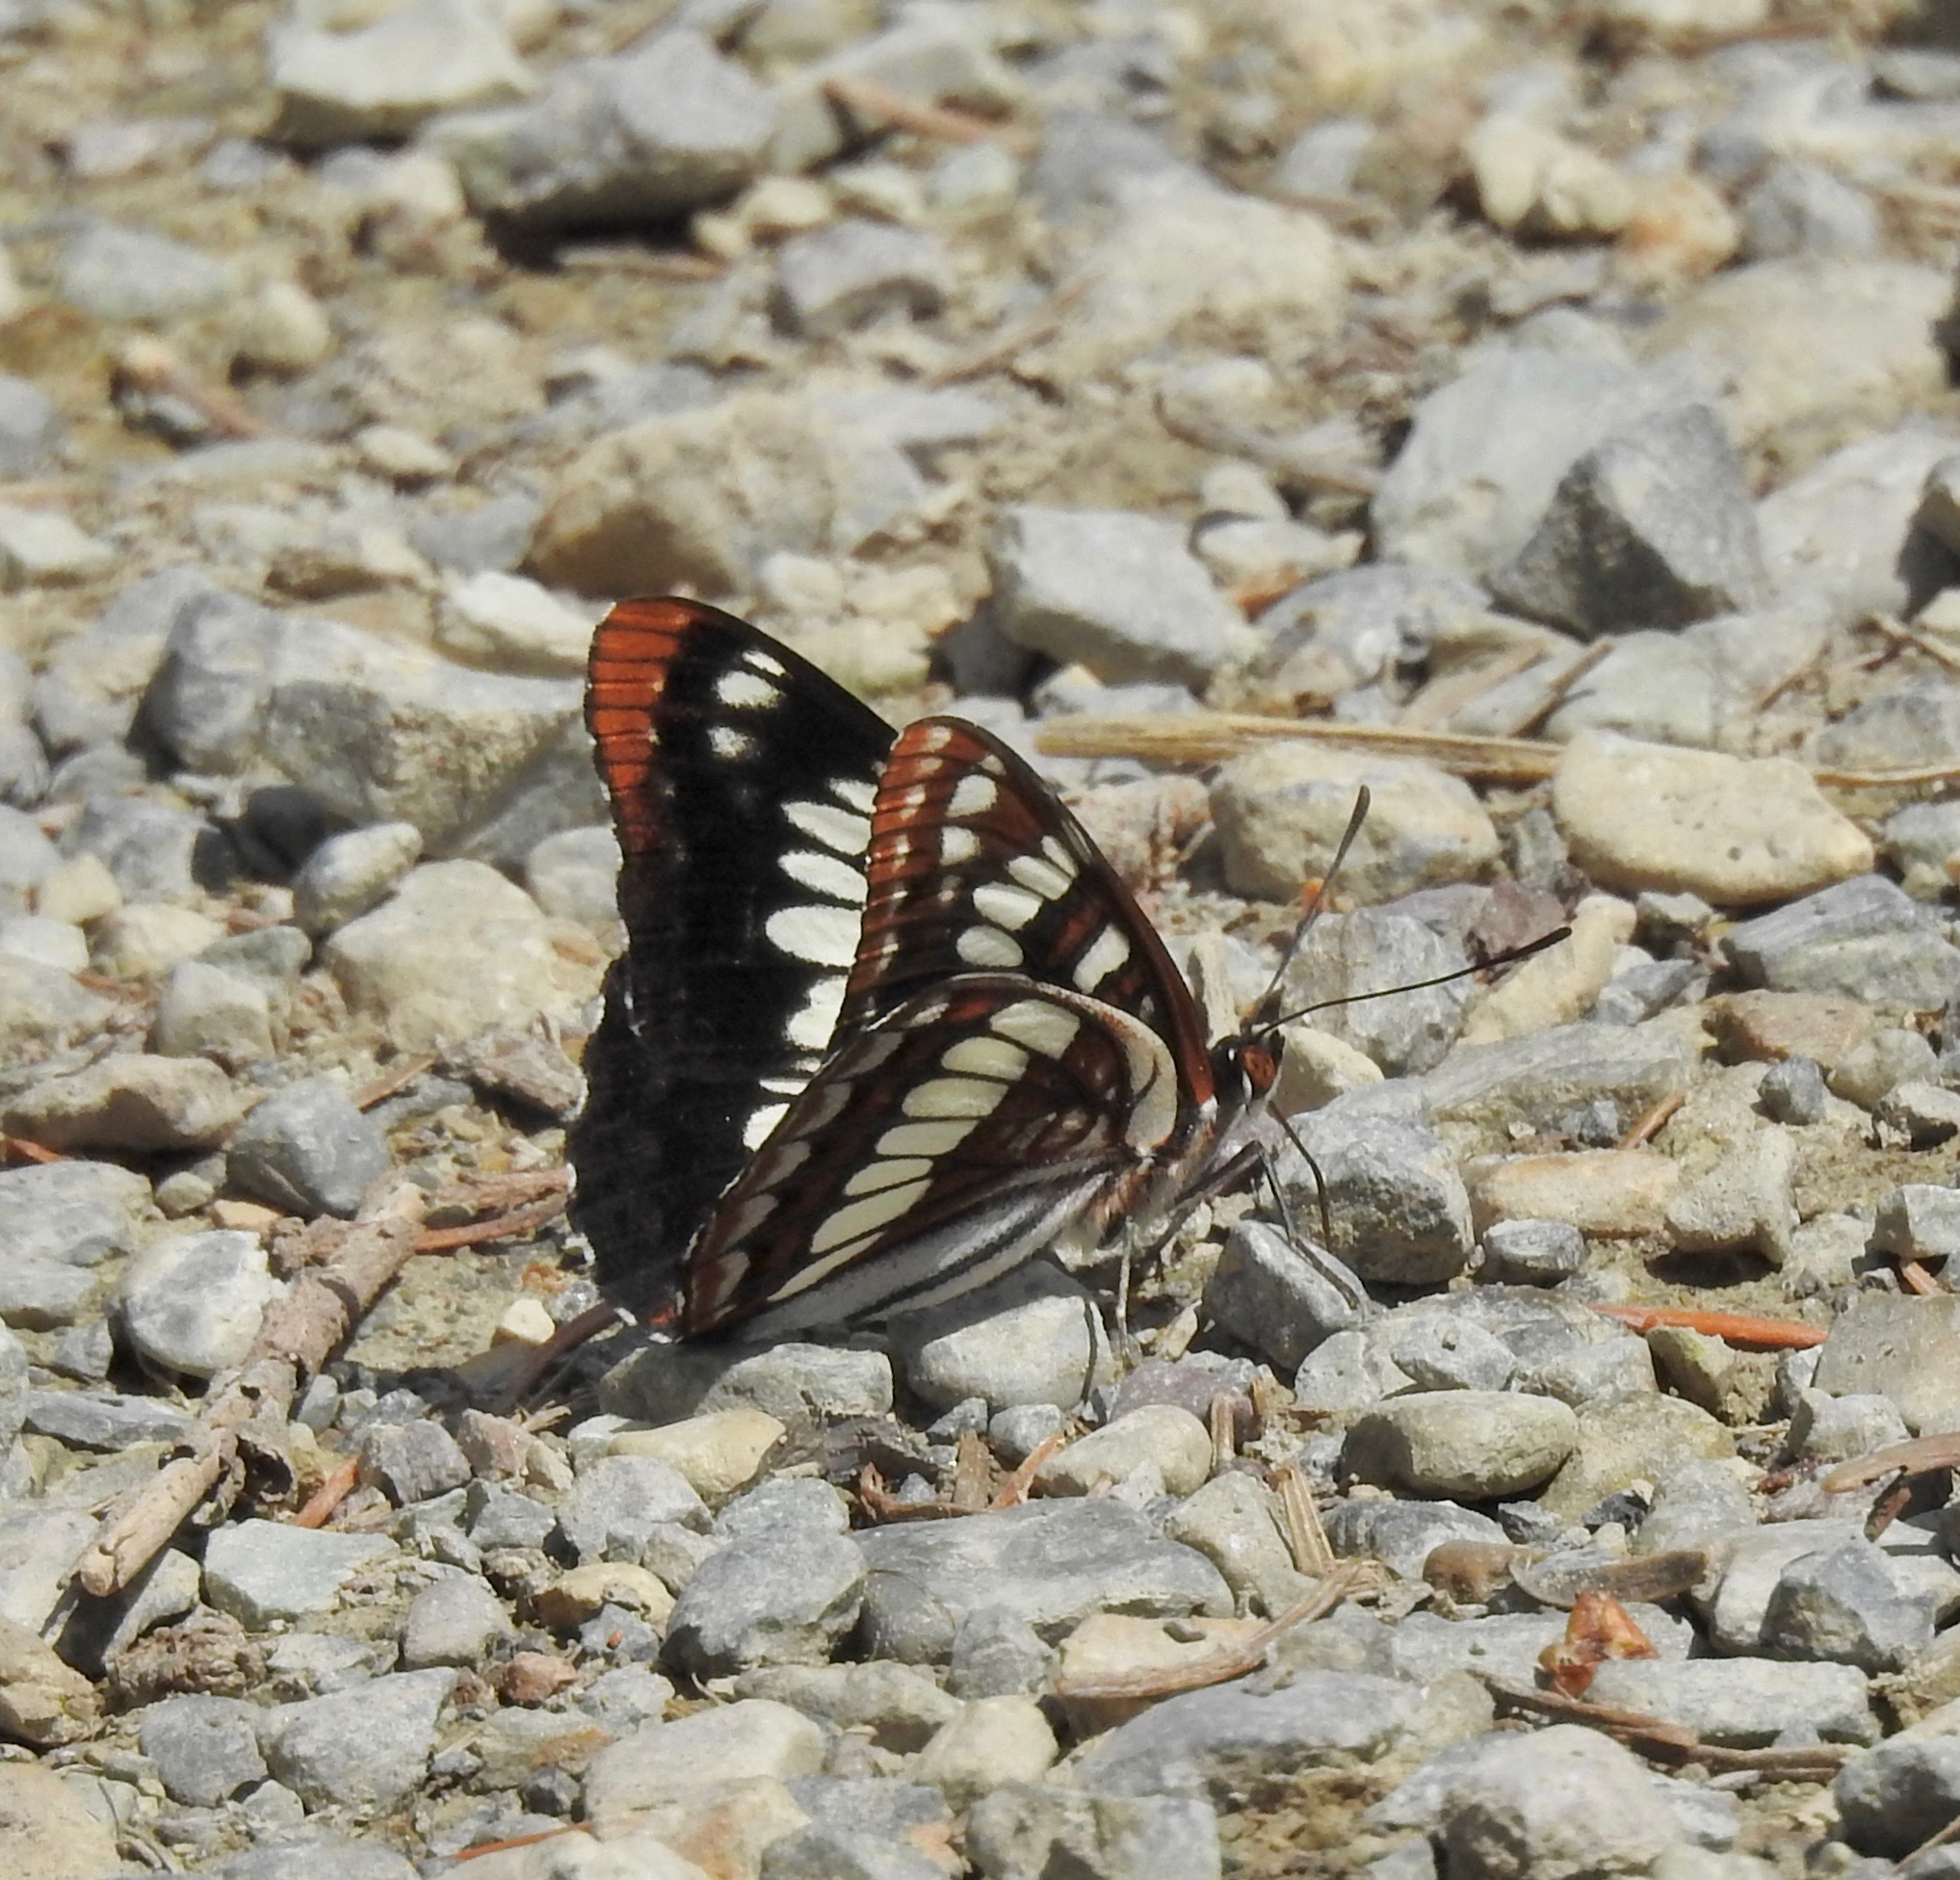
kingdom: Animalia
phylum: Arthropoda
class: Insecta
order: Lepidoptera
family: Nymphalidae
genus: Limenitis
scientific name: Limenitis lorquini
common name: Lorquin's admiral
